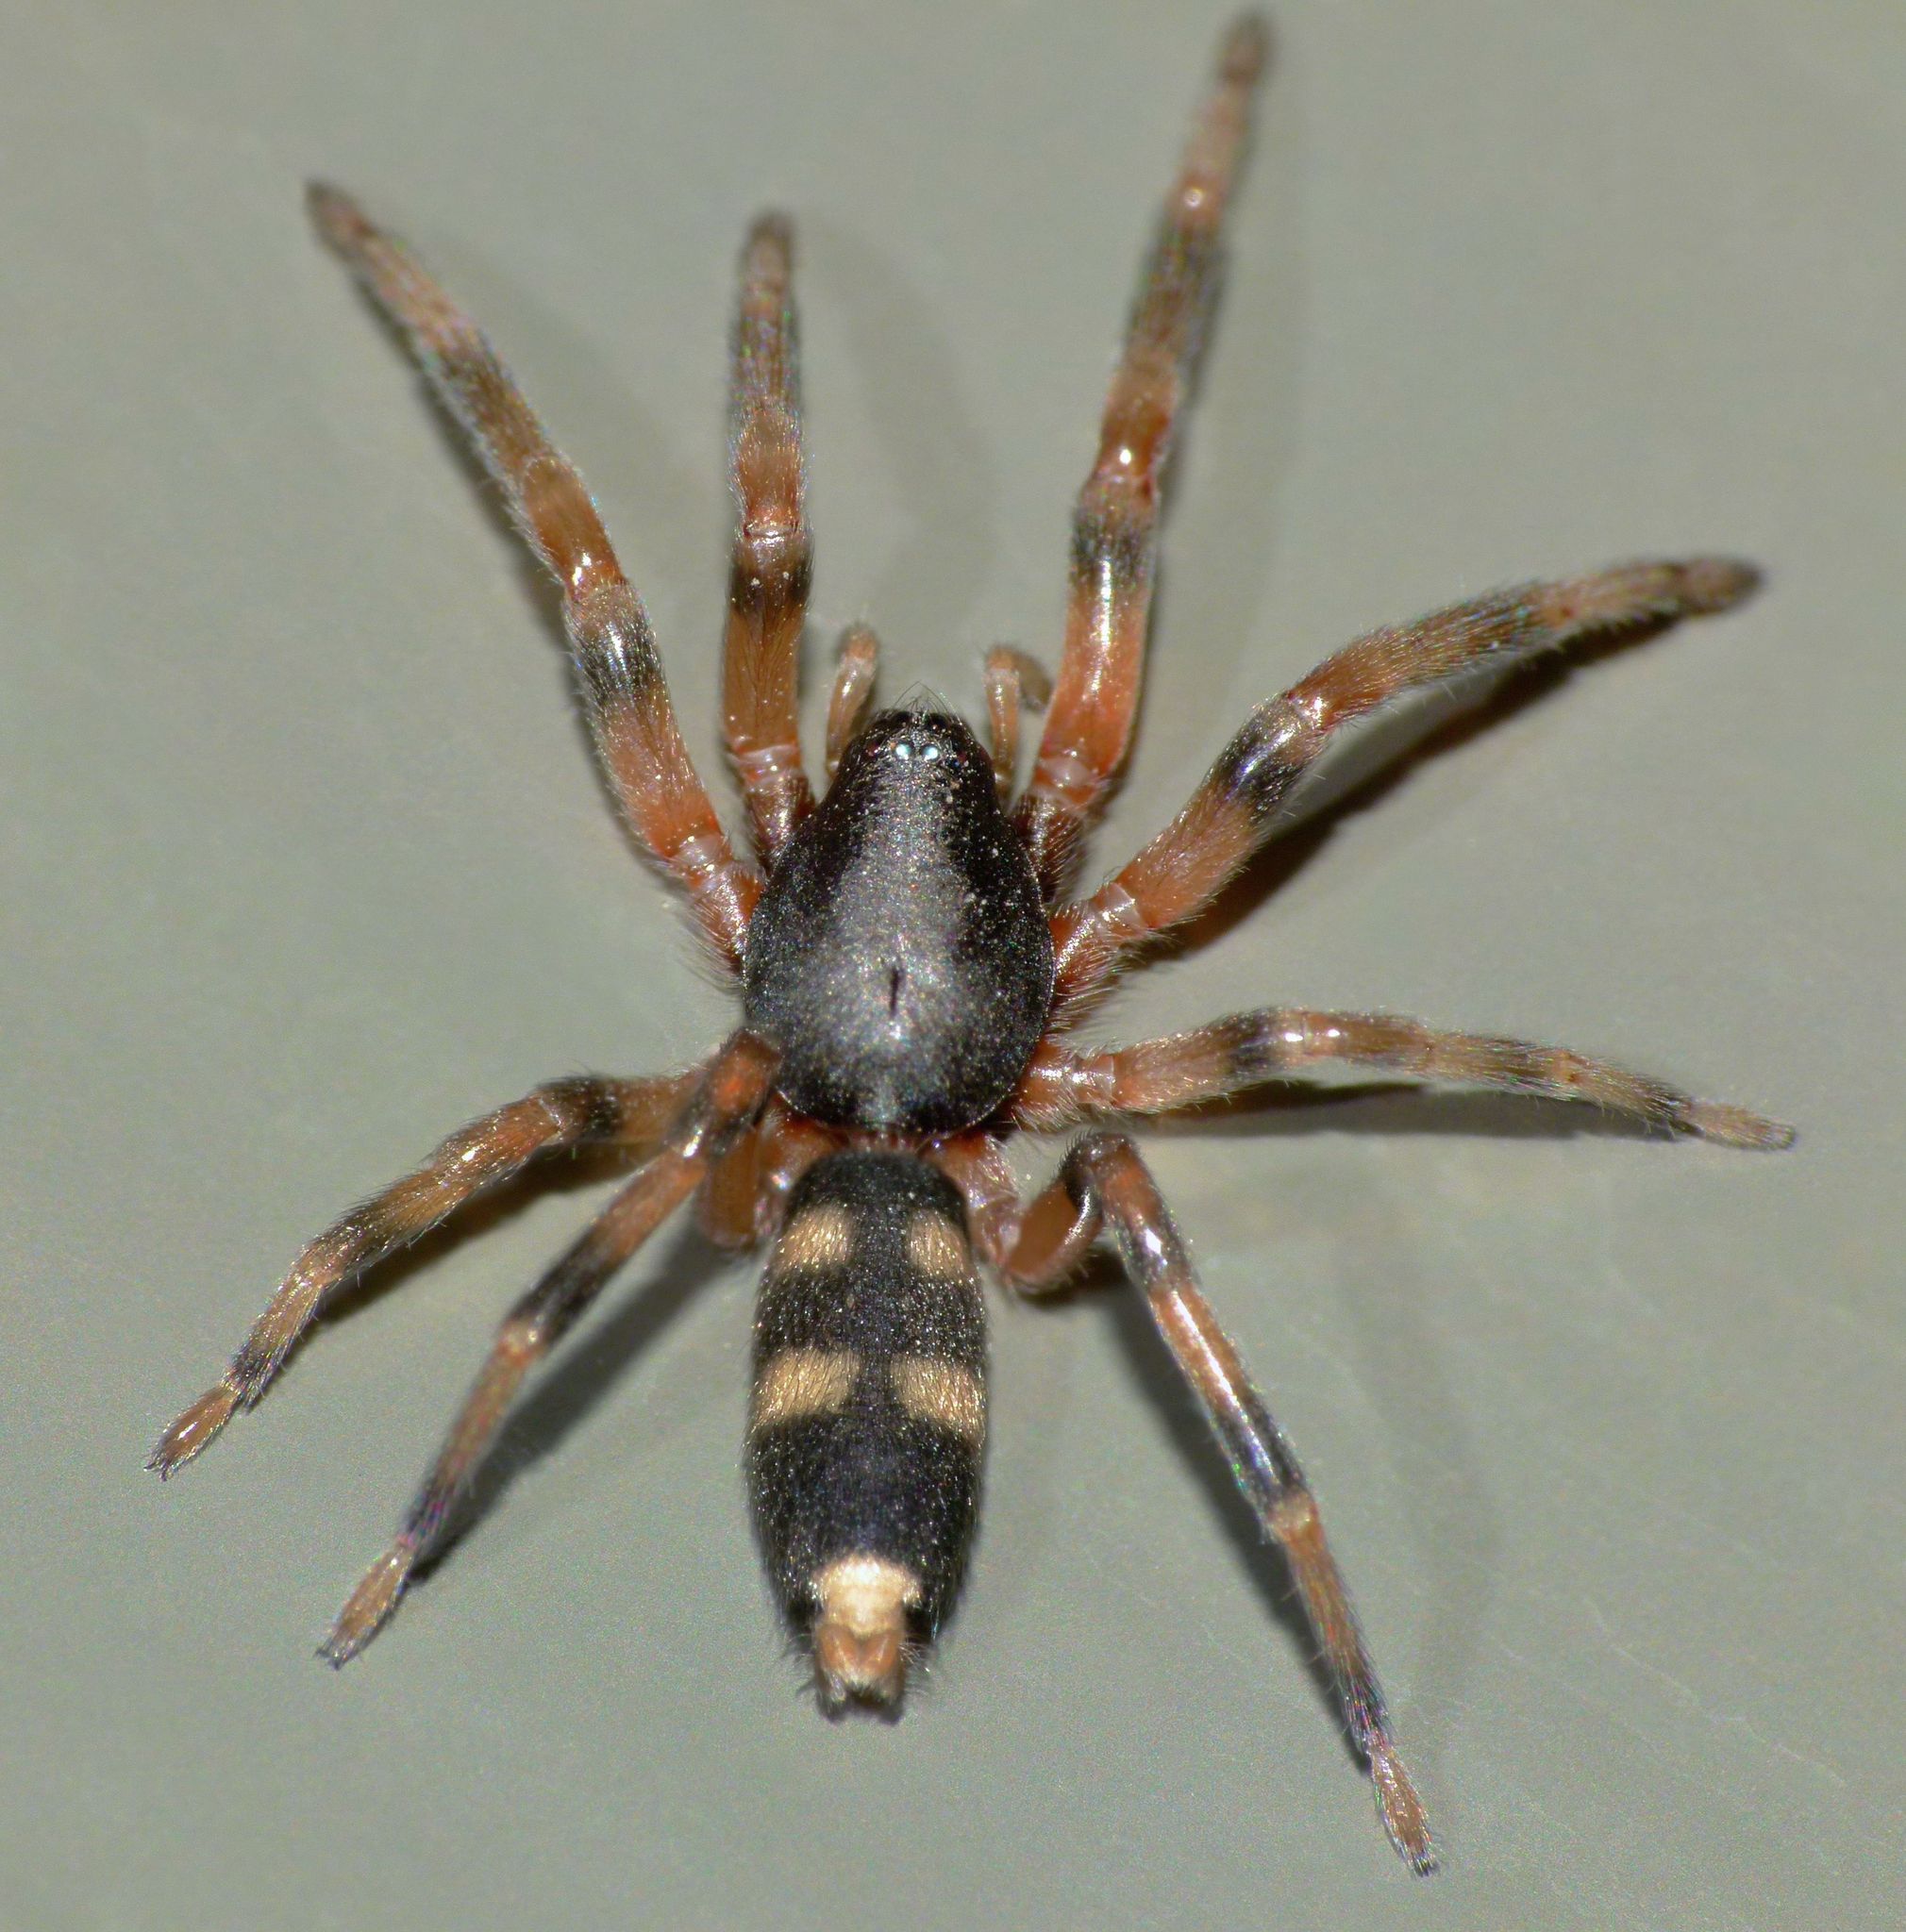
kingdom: Animalia
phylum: Arthropoda
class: Arachnida
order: Araneae
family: Lamponidae
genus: Lampona
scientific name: Lampona cylindrata
